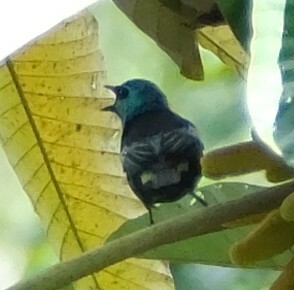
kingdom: Animalia
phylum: Chordata
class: Aves
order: Passeriformes
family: Thraupidae
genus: Stilpnia
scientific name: Stilpnia cyanicollis
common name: Blue-necked tanager
